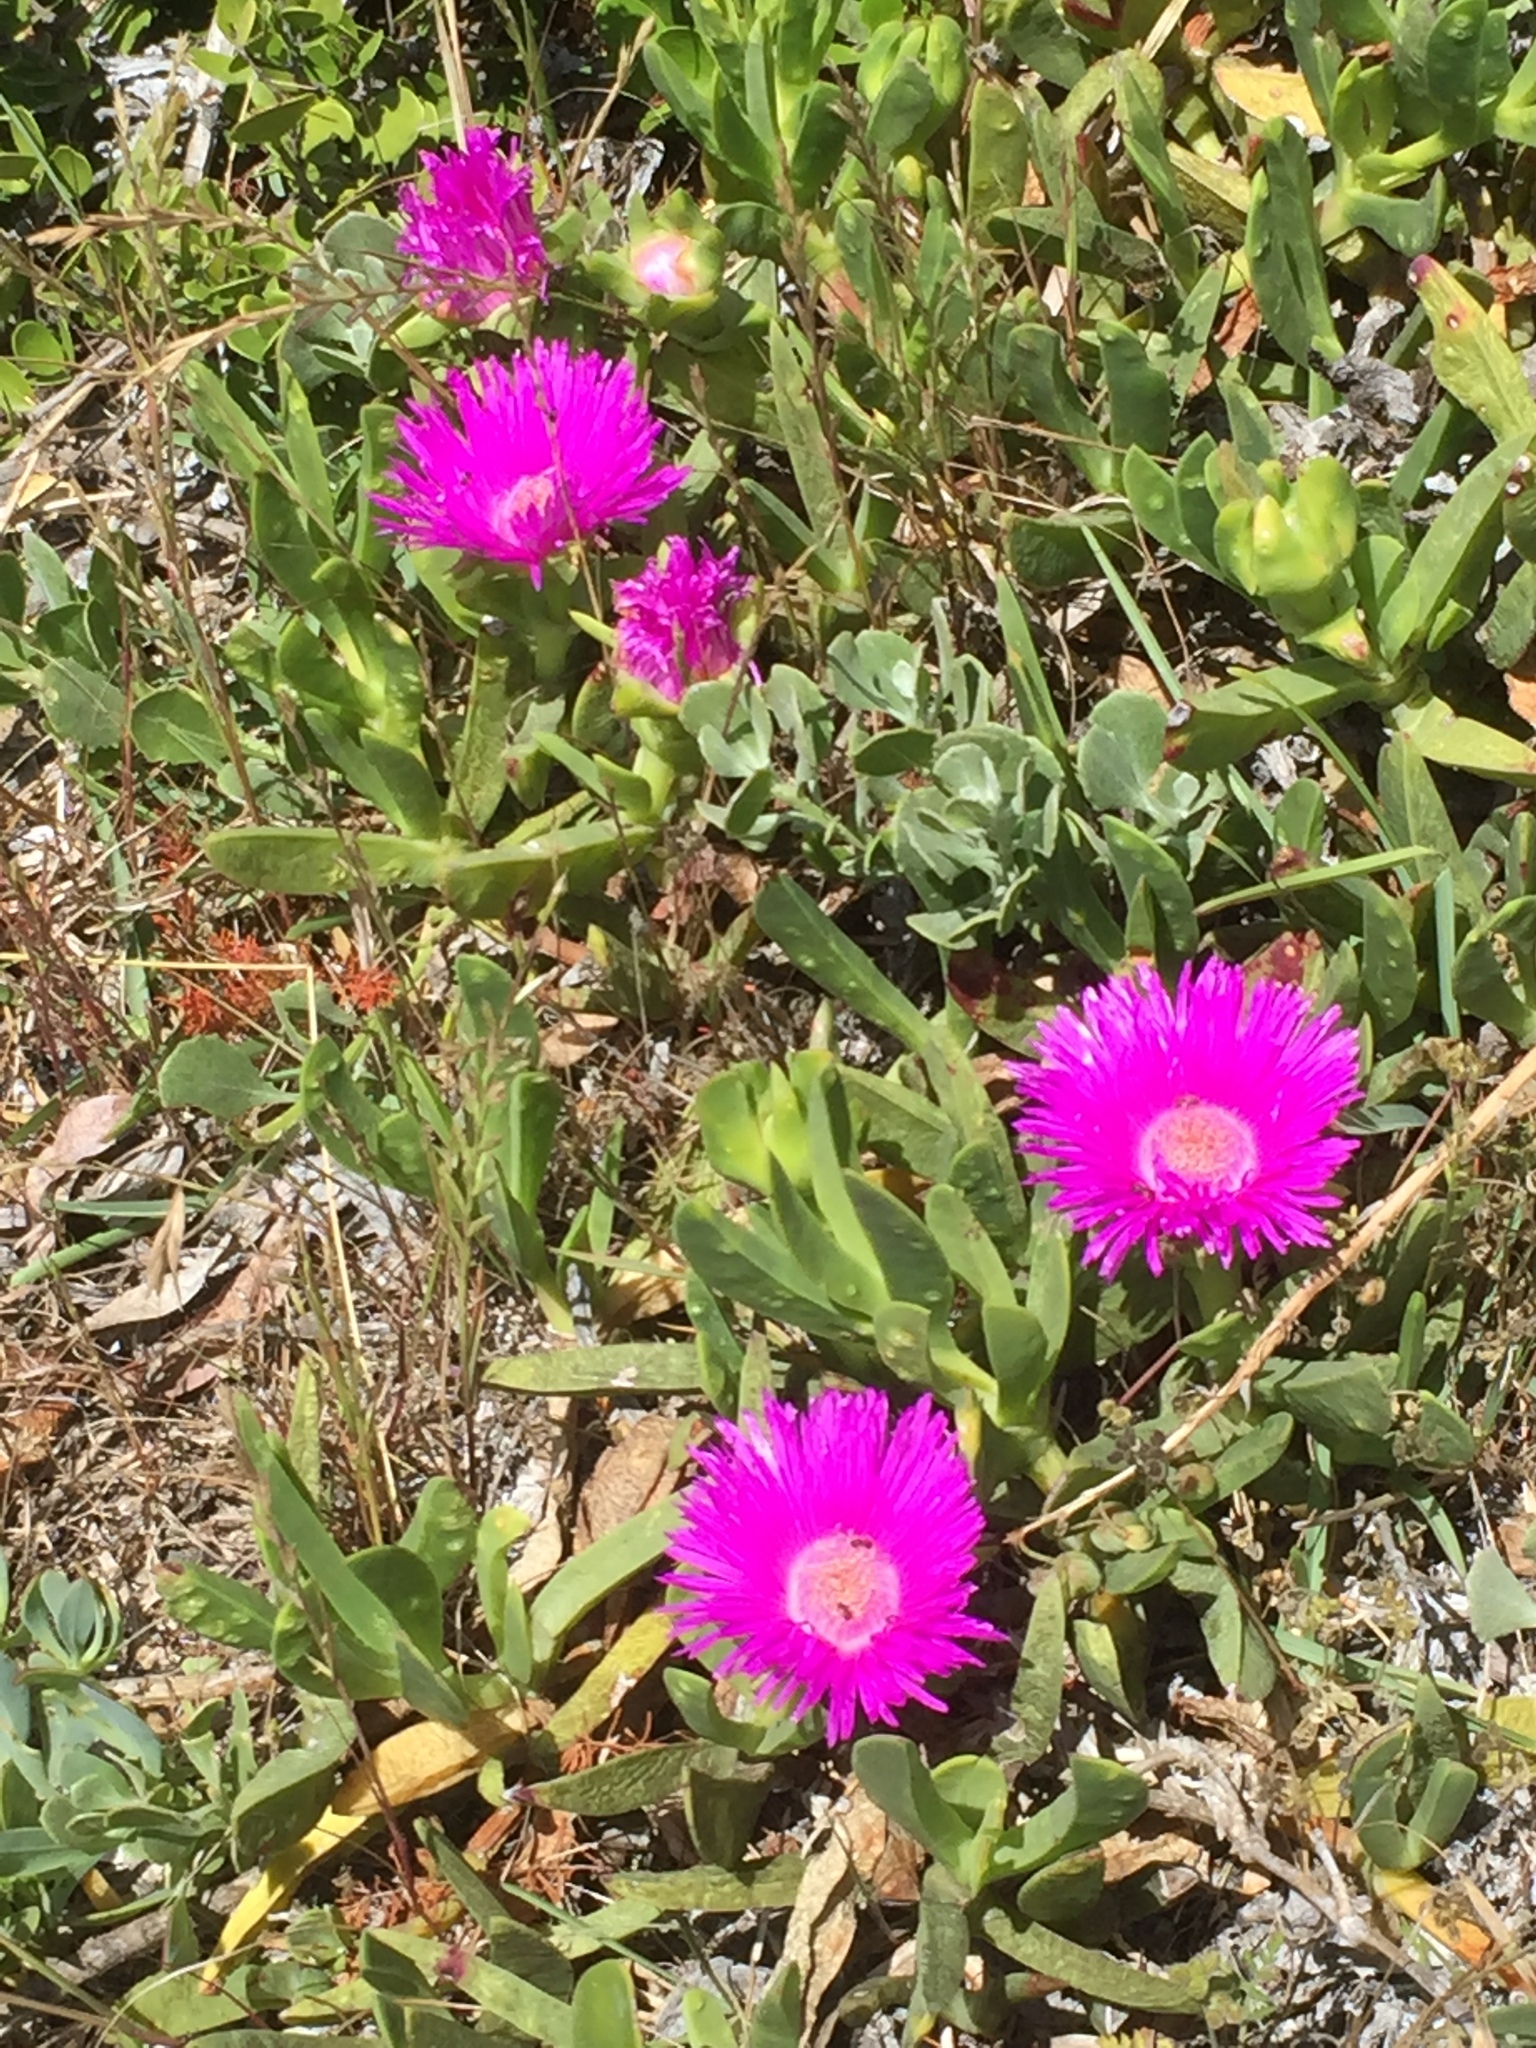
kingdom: Plantae
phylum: Tracheophyta
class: Magnoliopsida
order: Caryophyllales
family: Aizoaceae
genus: Carpobrotus
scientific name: Carpobrotus acinaciformis
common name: Sally-my-handsome
